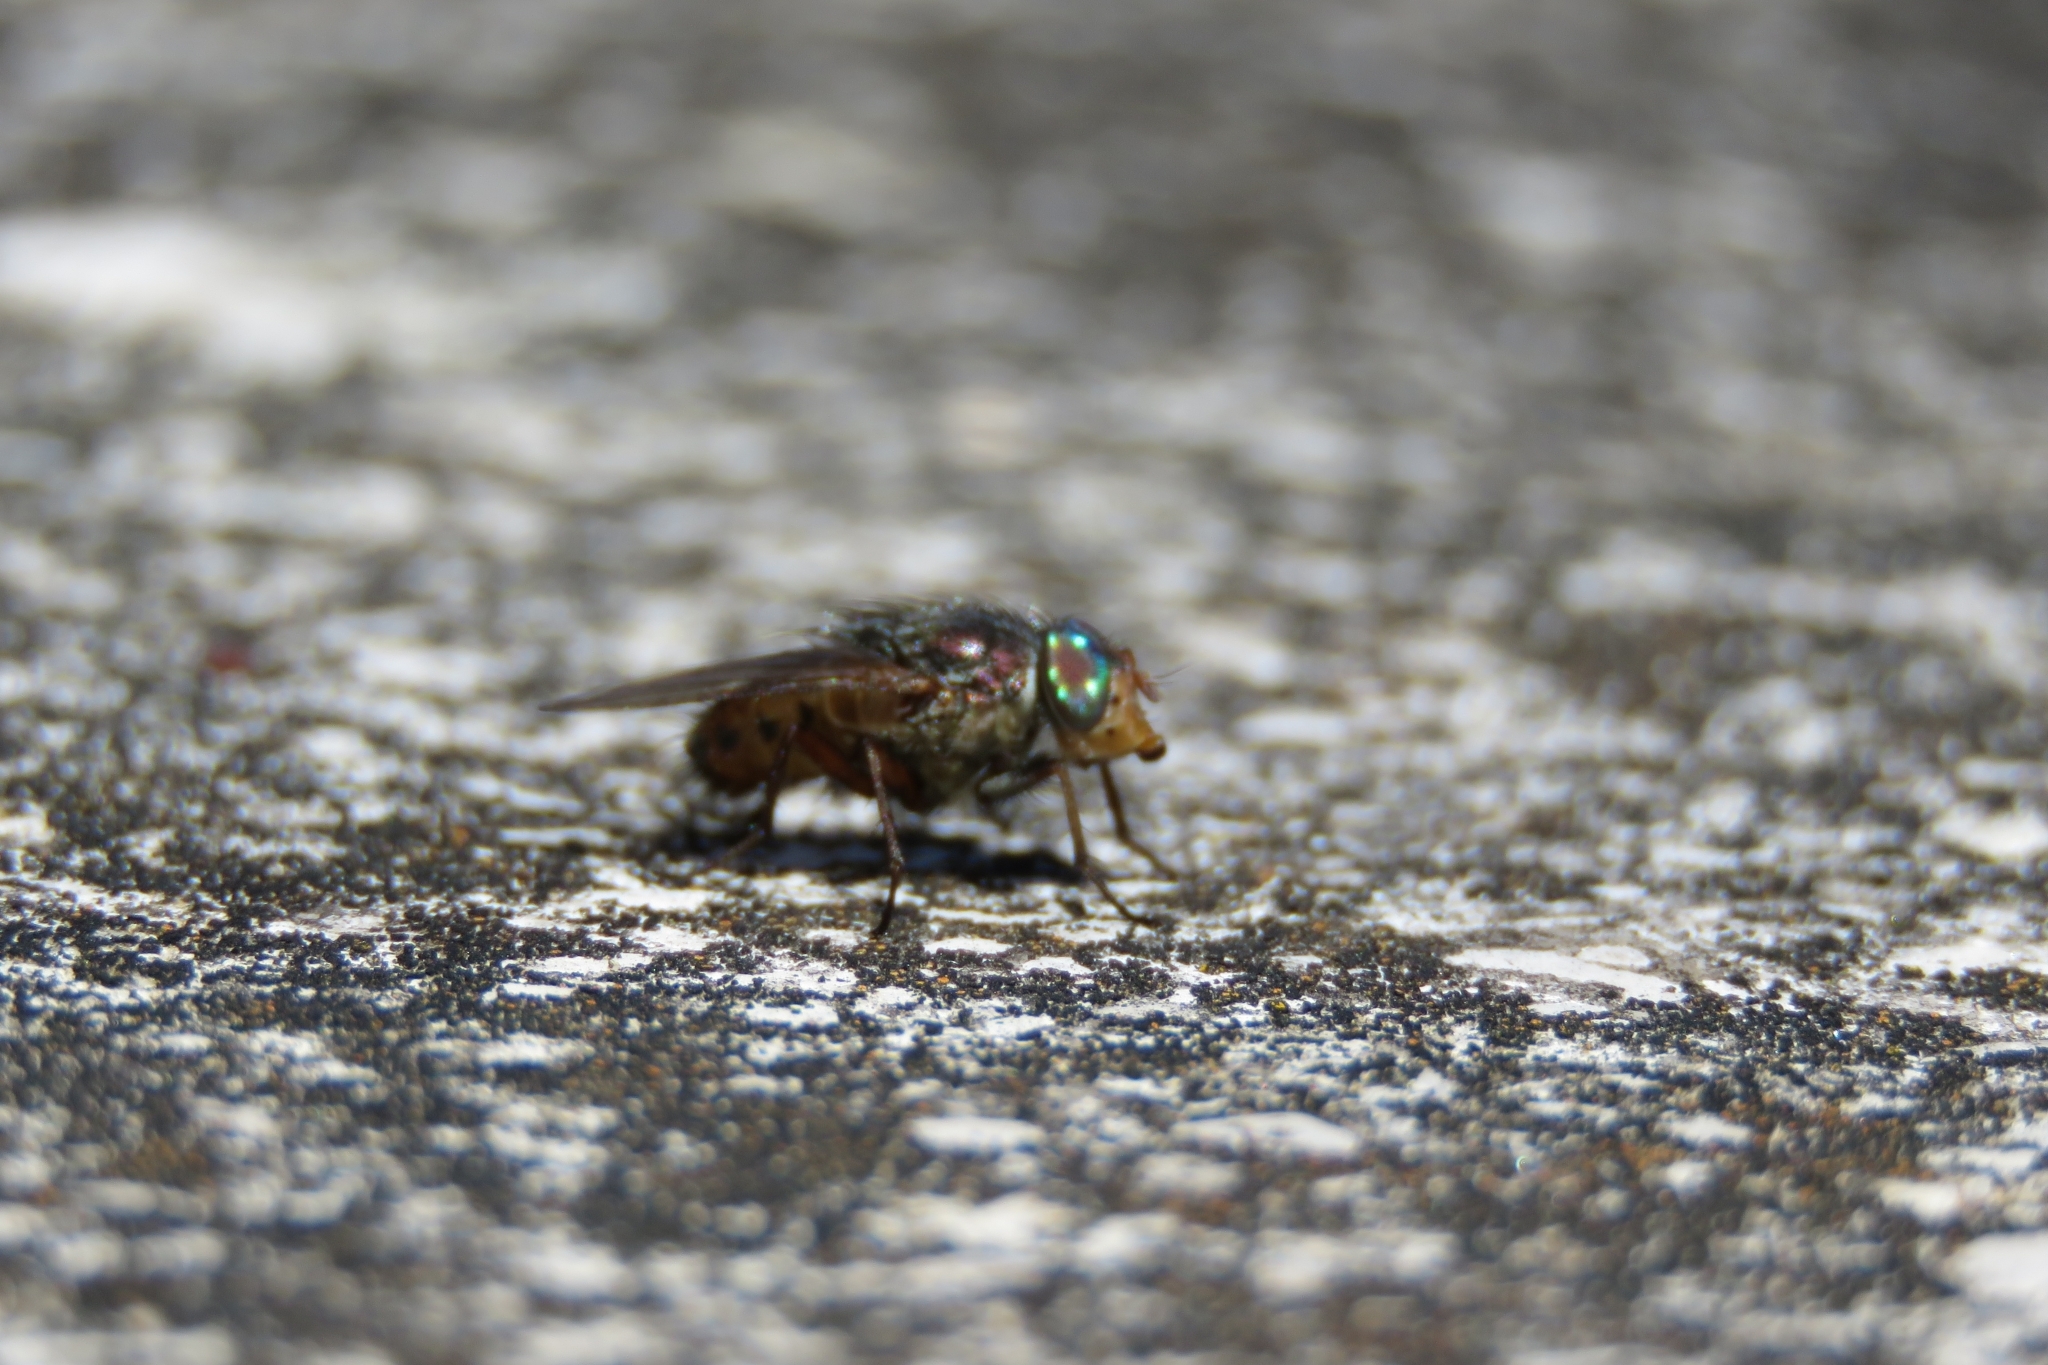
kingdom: Animalia
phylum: Arthropoda
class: Insecta
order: Diptera
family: Calliphoridae
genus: Rhyncomya
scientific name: Rhyncomya columbina
